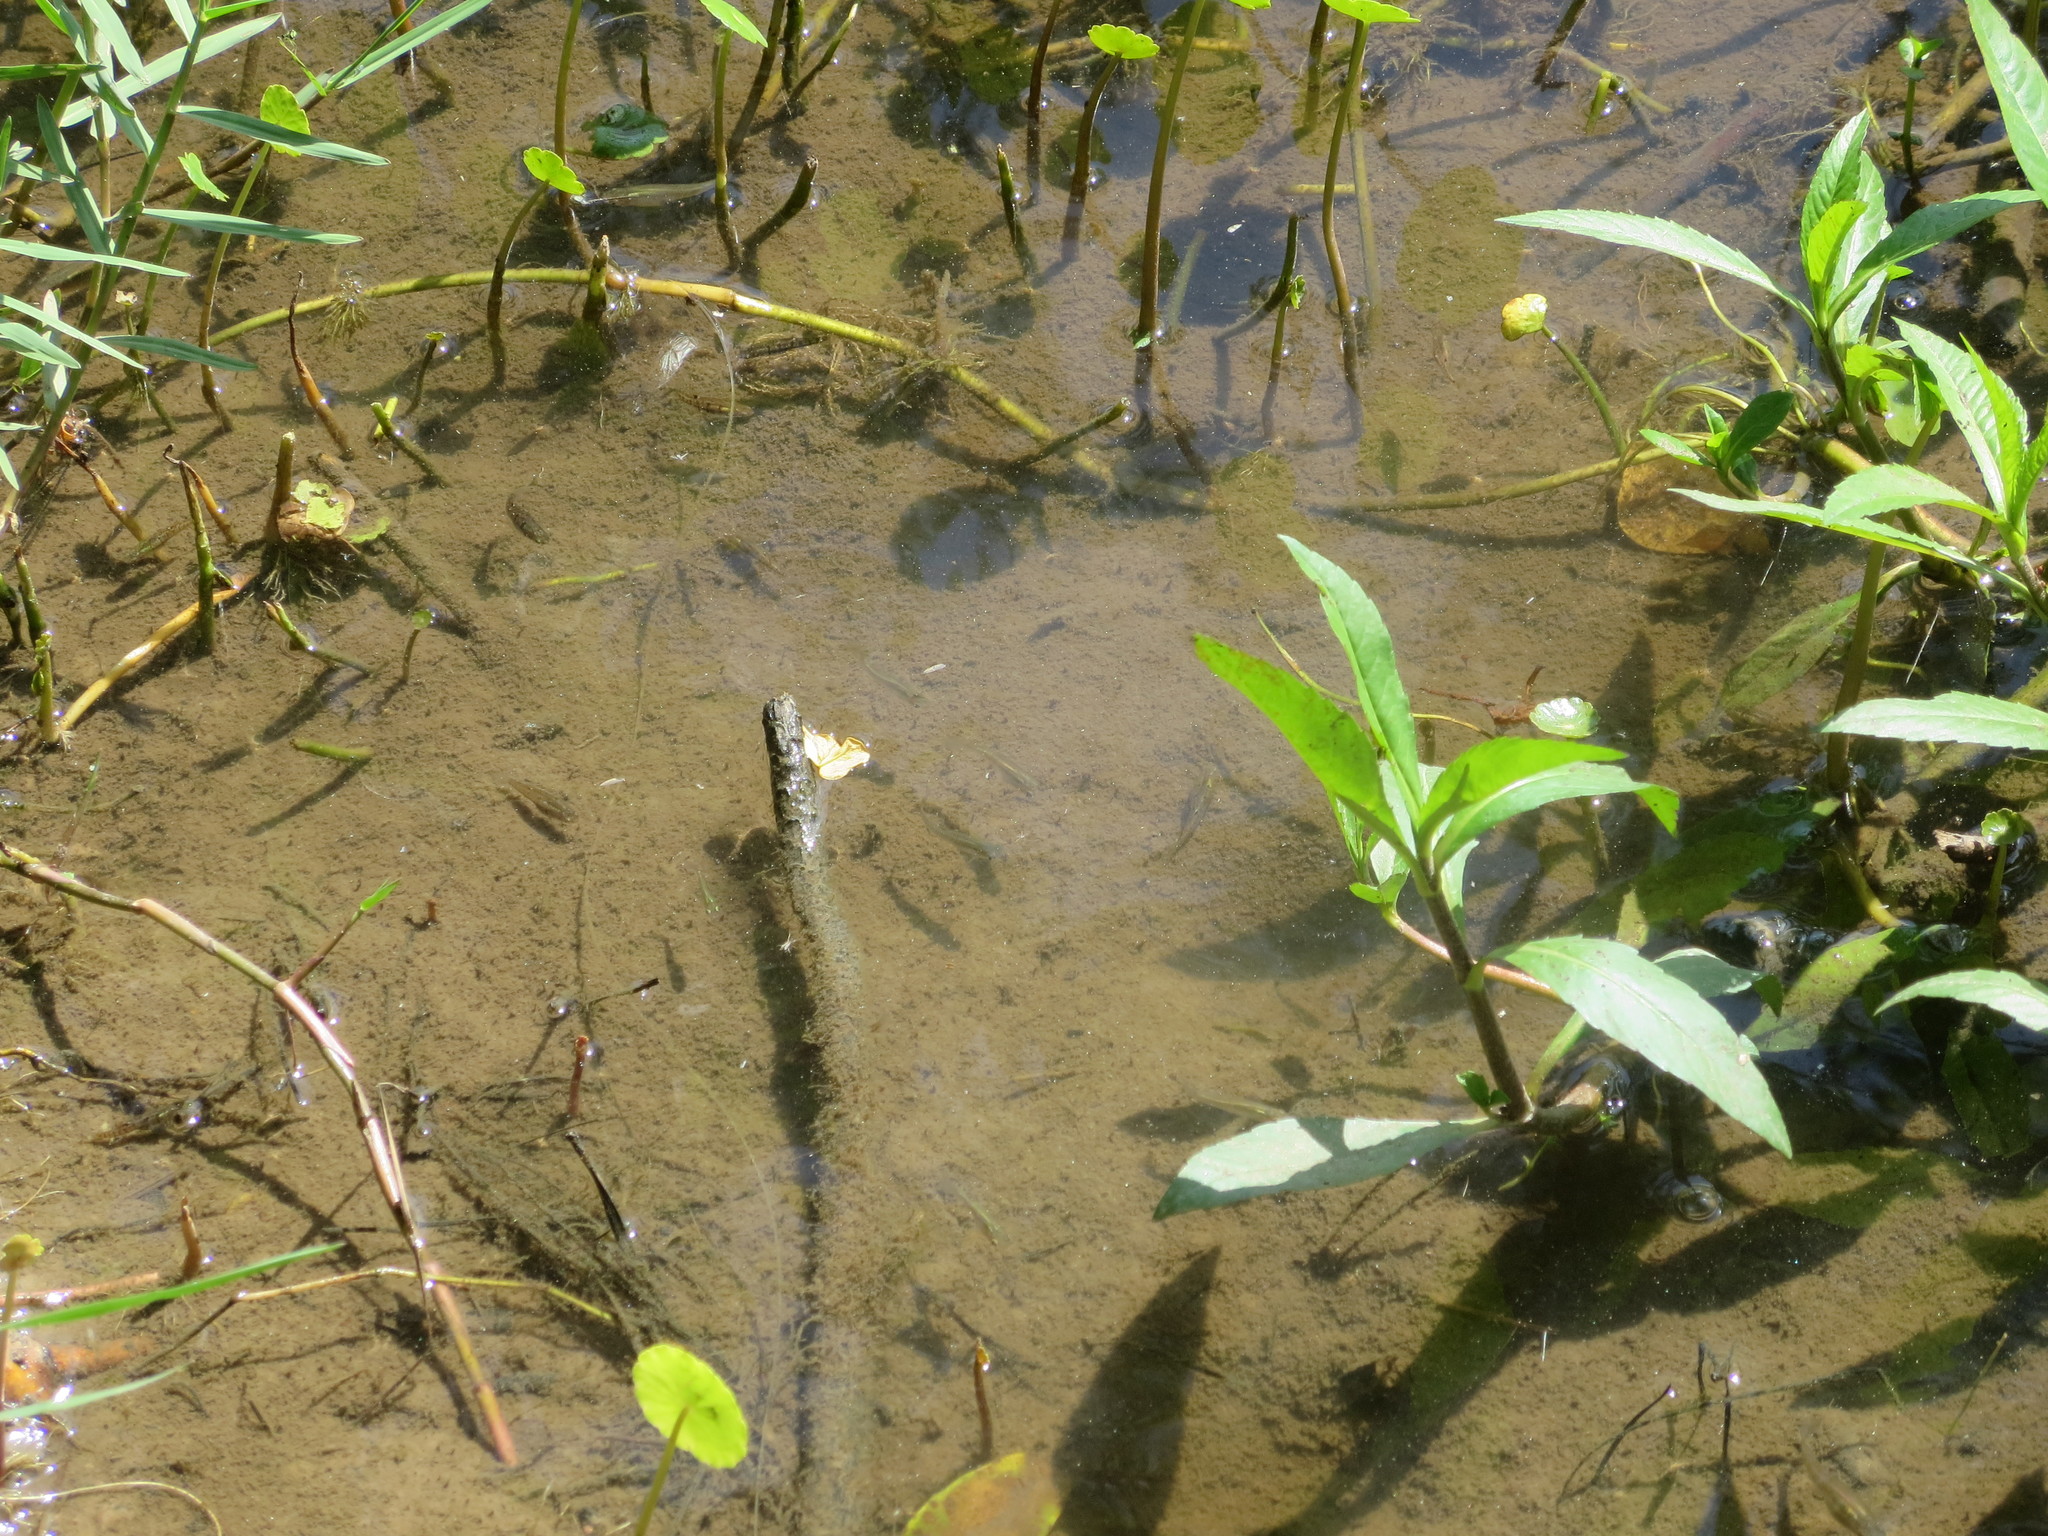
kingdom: Animalia
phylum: Chordata
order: Cyprinodontiformes
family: Poeciliidae
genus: Gambusia
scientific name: Gambusia holbrooki
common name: Eastern mosquitofish
